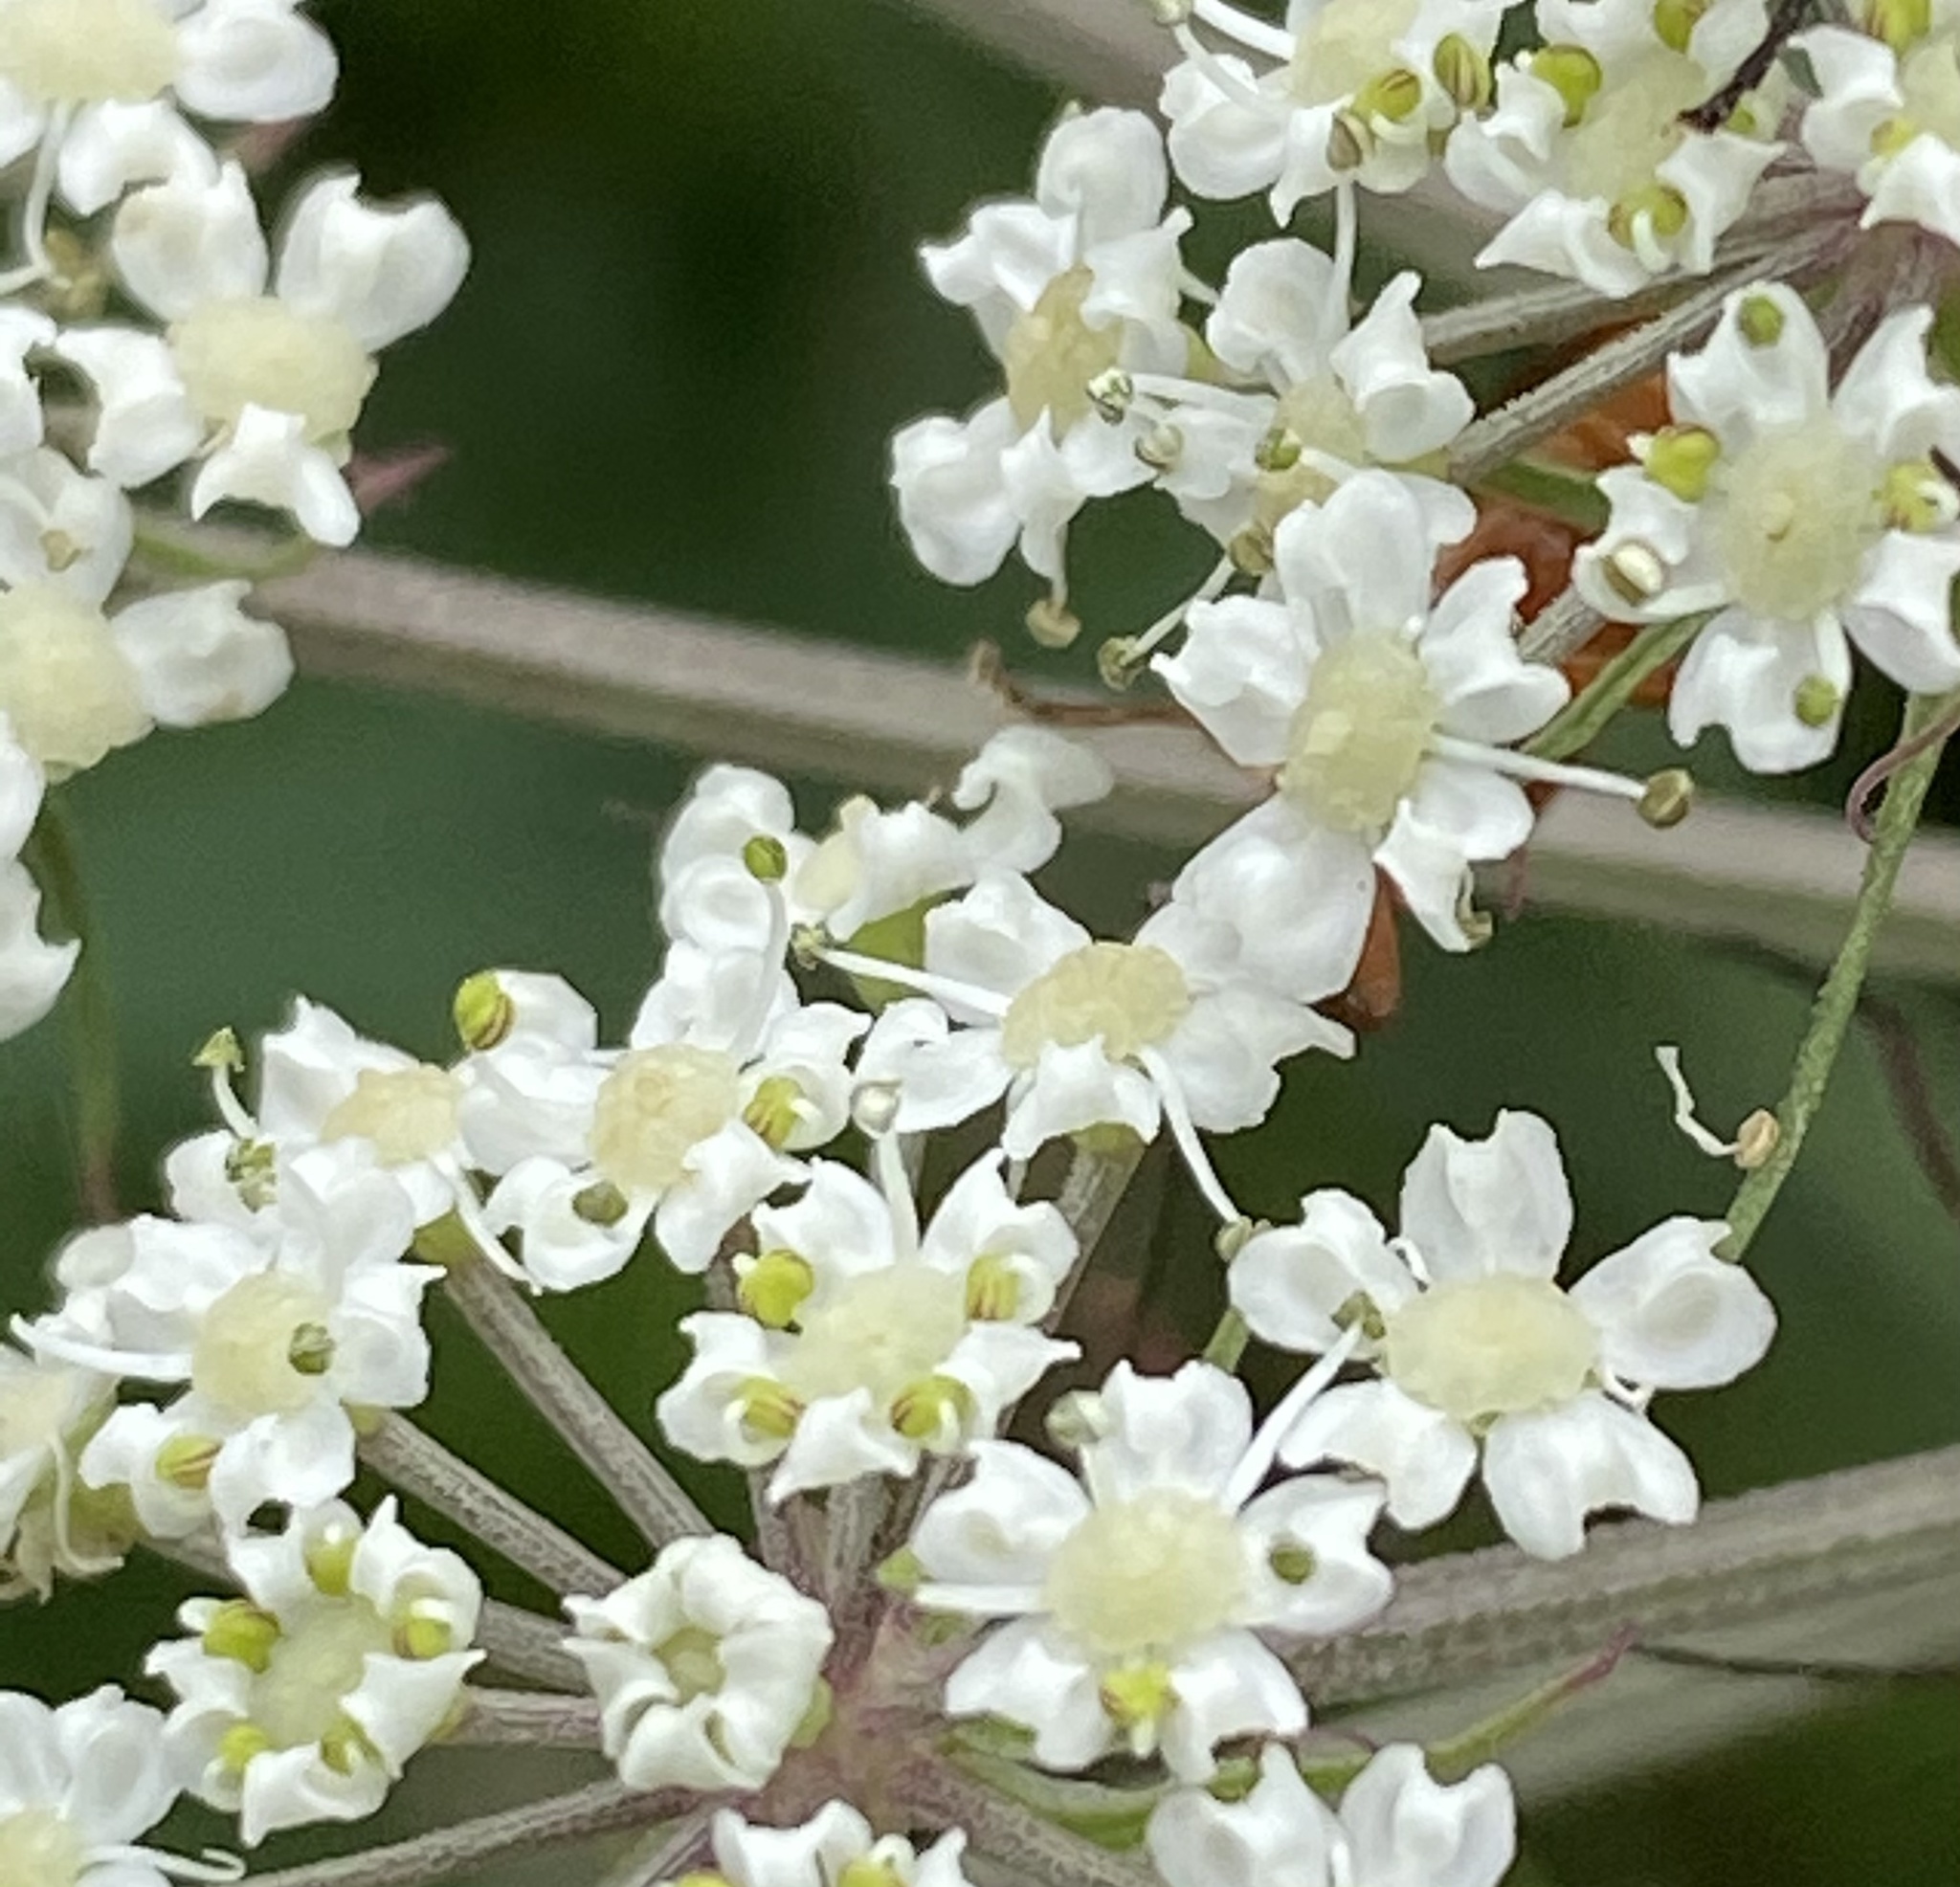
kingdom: Plantae
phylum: Tracheophyta
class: Magnoliopsida
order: Apiales
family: Apiaceae
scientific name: Apiaceae
